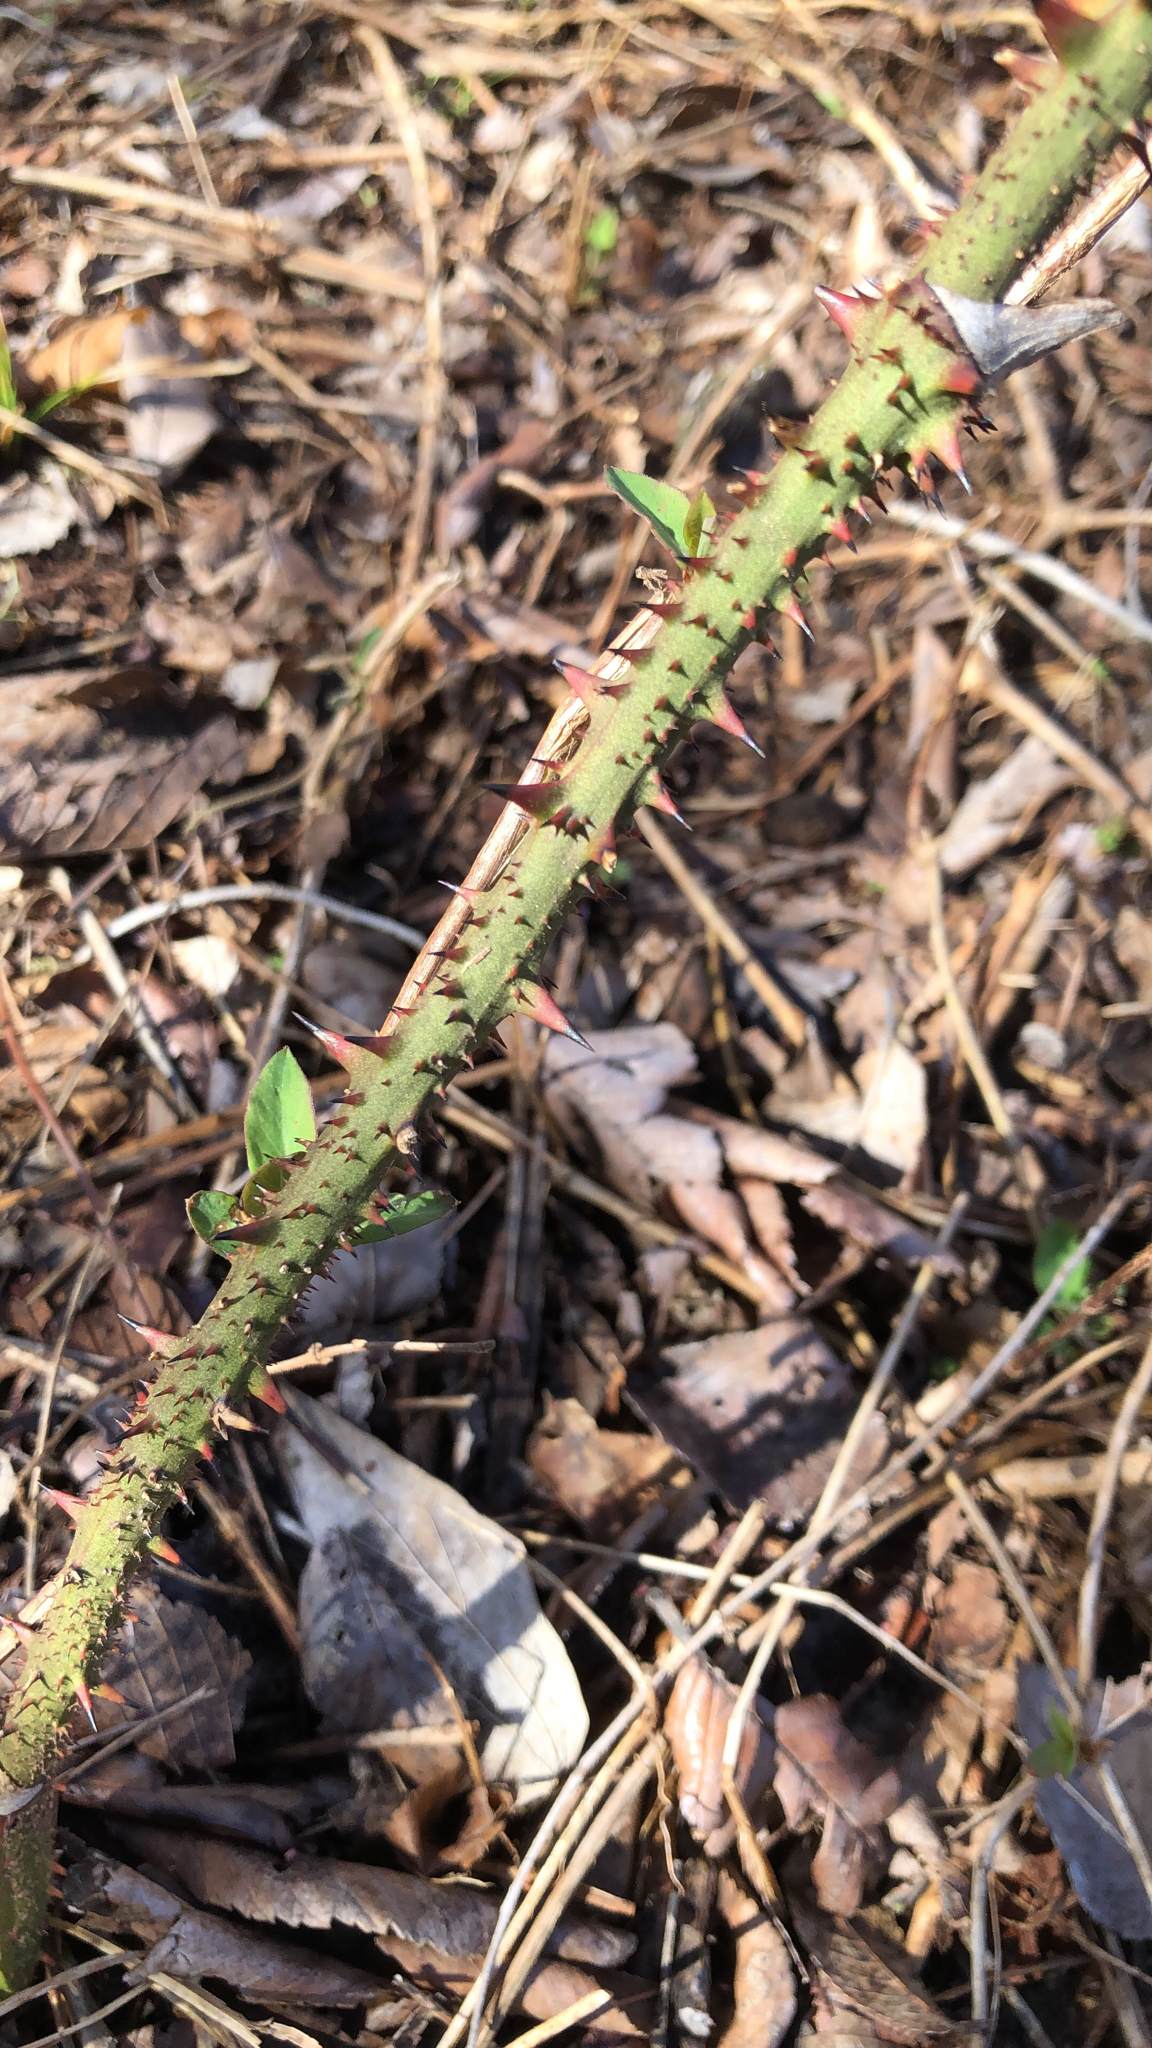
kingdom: Plantae
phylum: Tracheophyta
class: Liliopsida
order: Liliales
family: Smilacaceae
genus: Smilax
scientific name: Smilax tamnoides
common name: Hellfetter
